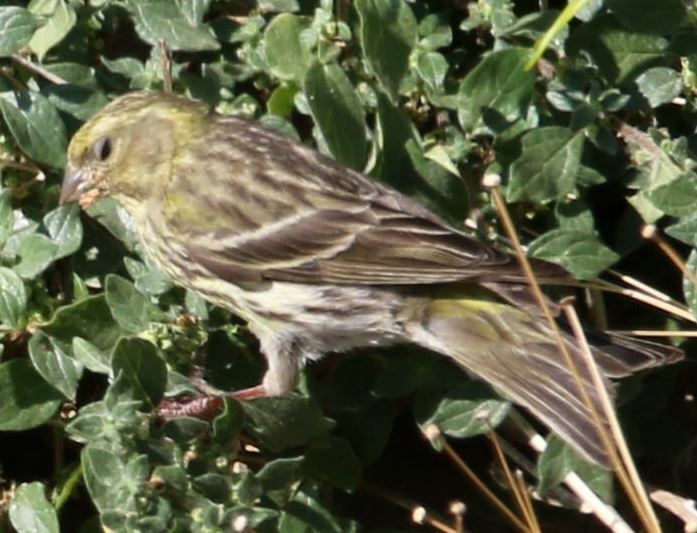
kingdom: Animalia
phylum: Chordata
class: Aves
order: Passeriformes
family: Fringillidae
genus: Serinus
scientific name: Serinus serinus
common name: European serin
